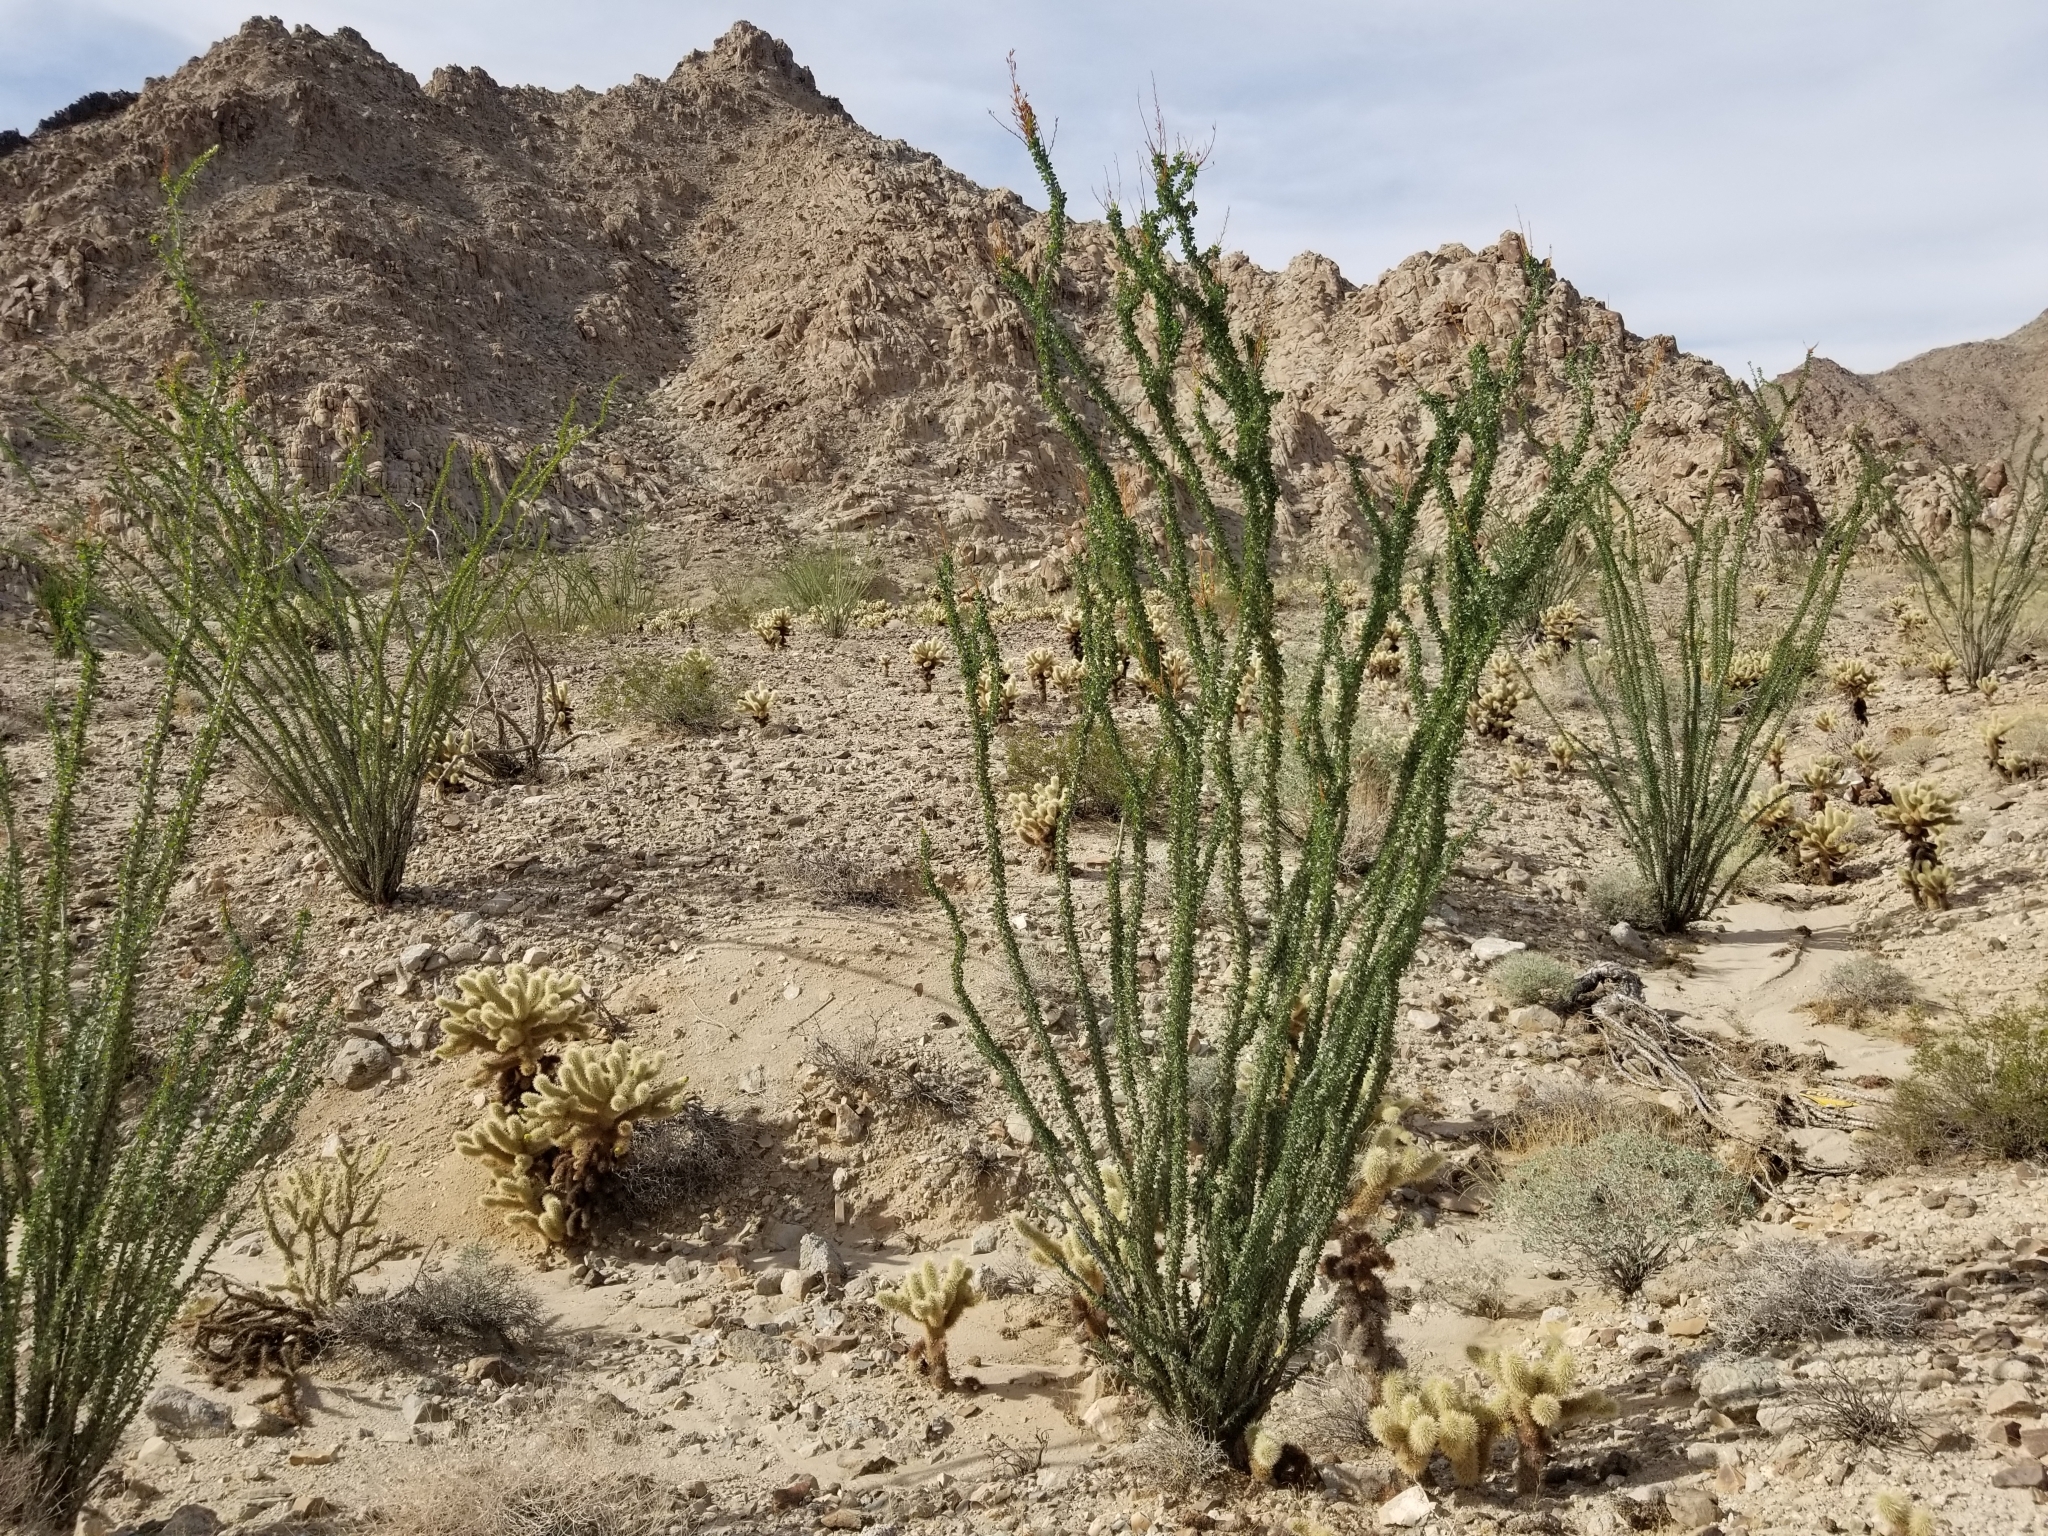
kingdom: Plantae
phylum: Tracheophyta
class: Magnoliopsida
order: Ericales
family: Fouquieriaceae
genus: Fouquieria
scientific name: Fouquieria splendens
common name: Vine-cactus
